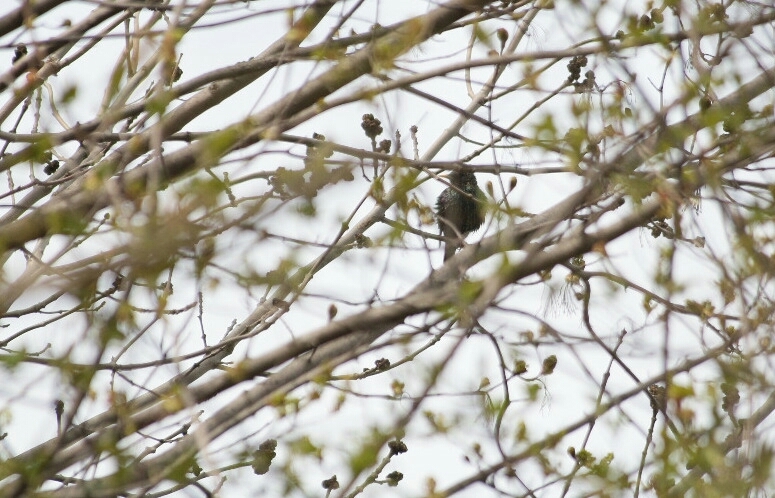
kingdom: Animalia
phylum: Chordata
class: Aves
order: Passeriformes
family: Sturnidae
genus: Sturnus
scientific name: Sturnus vulgaris
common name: Common starling
